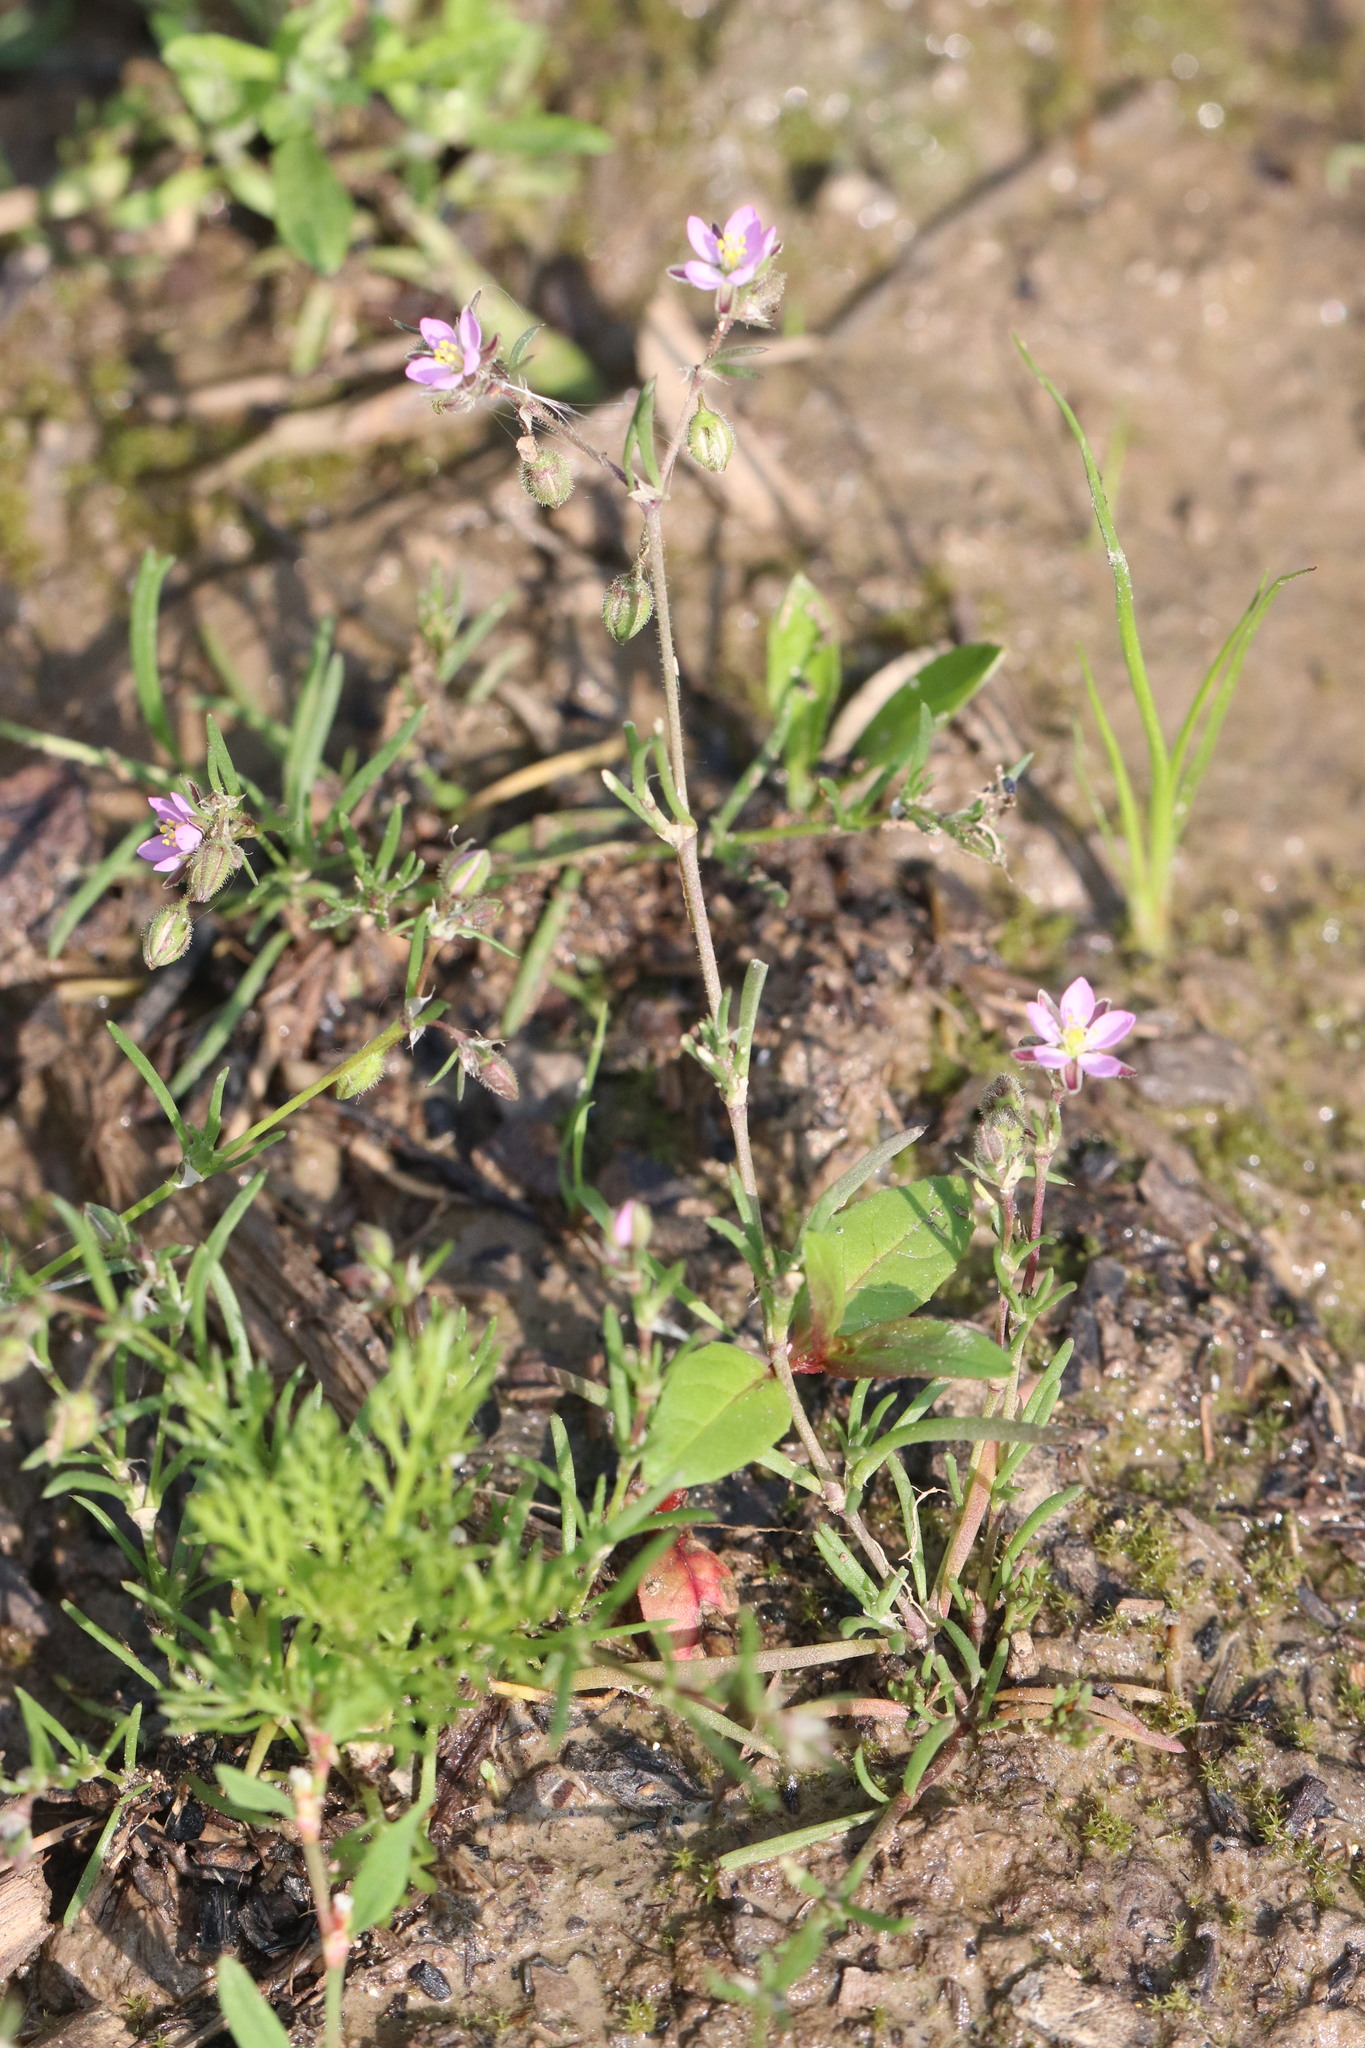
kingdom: Plantae
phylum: Tracheophyta
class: Magnoliopsida
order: Caryophyllales
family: Caryophyllaceae
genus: Spergularia
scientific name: Spergularia rubra
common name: Red sand-spurrey
